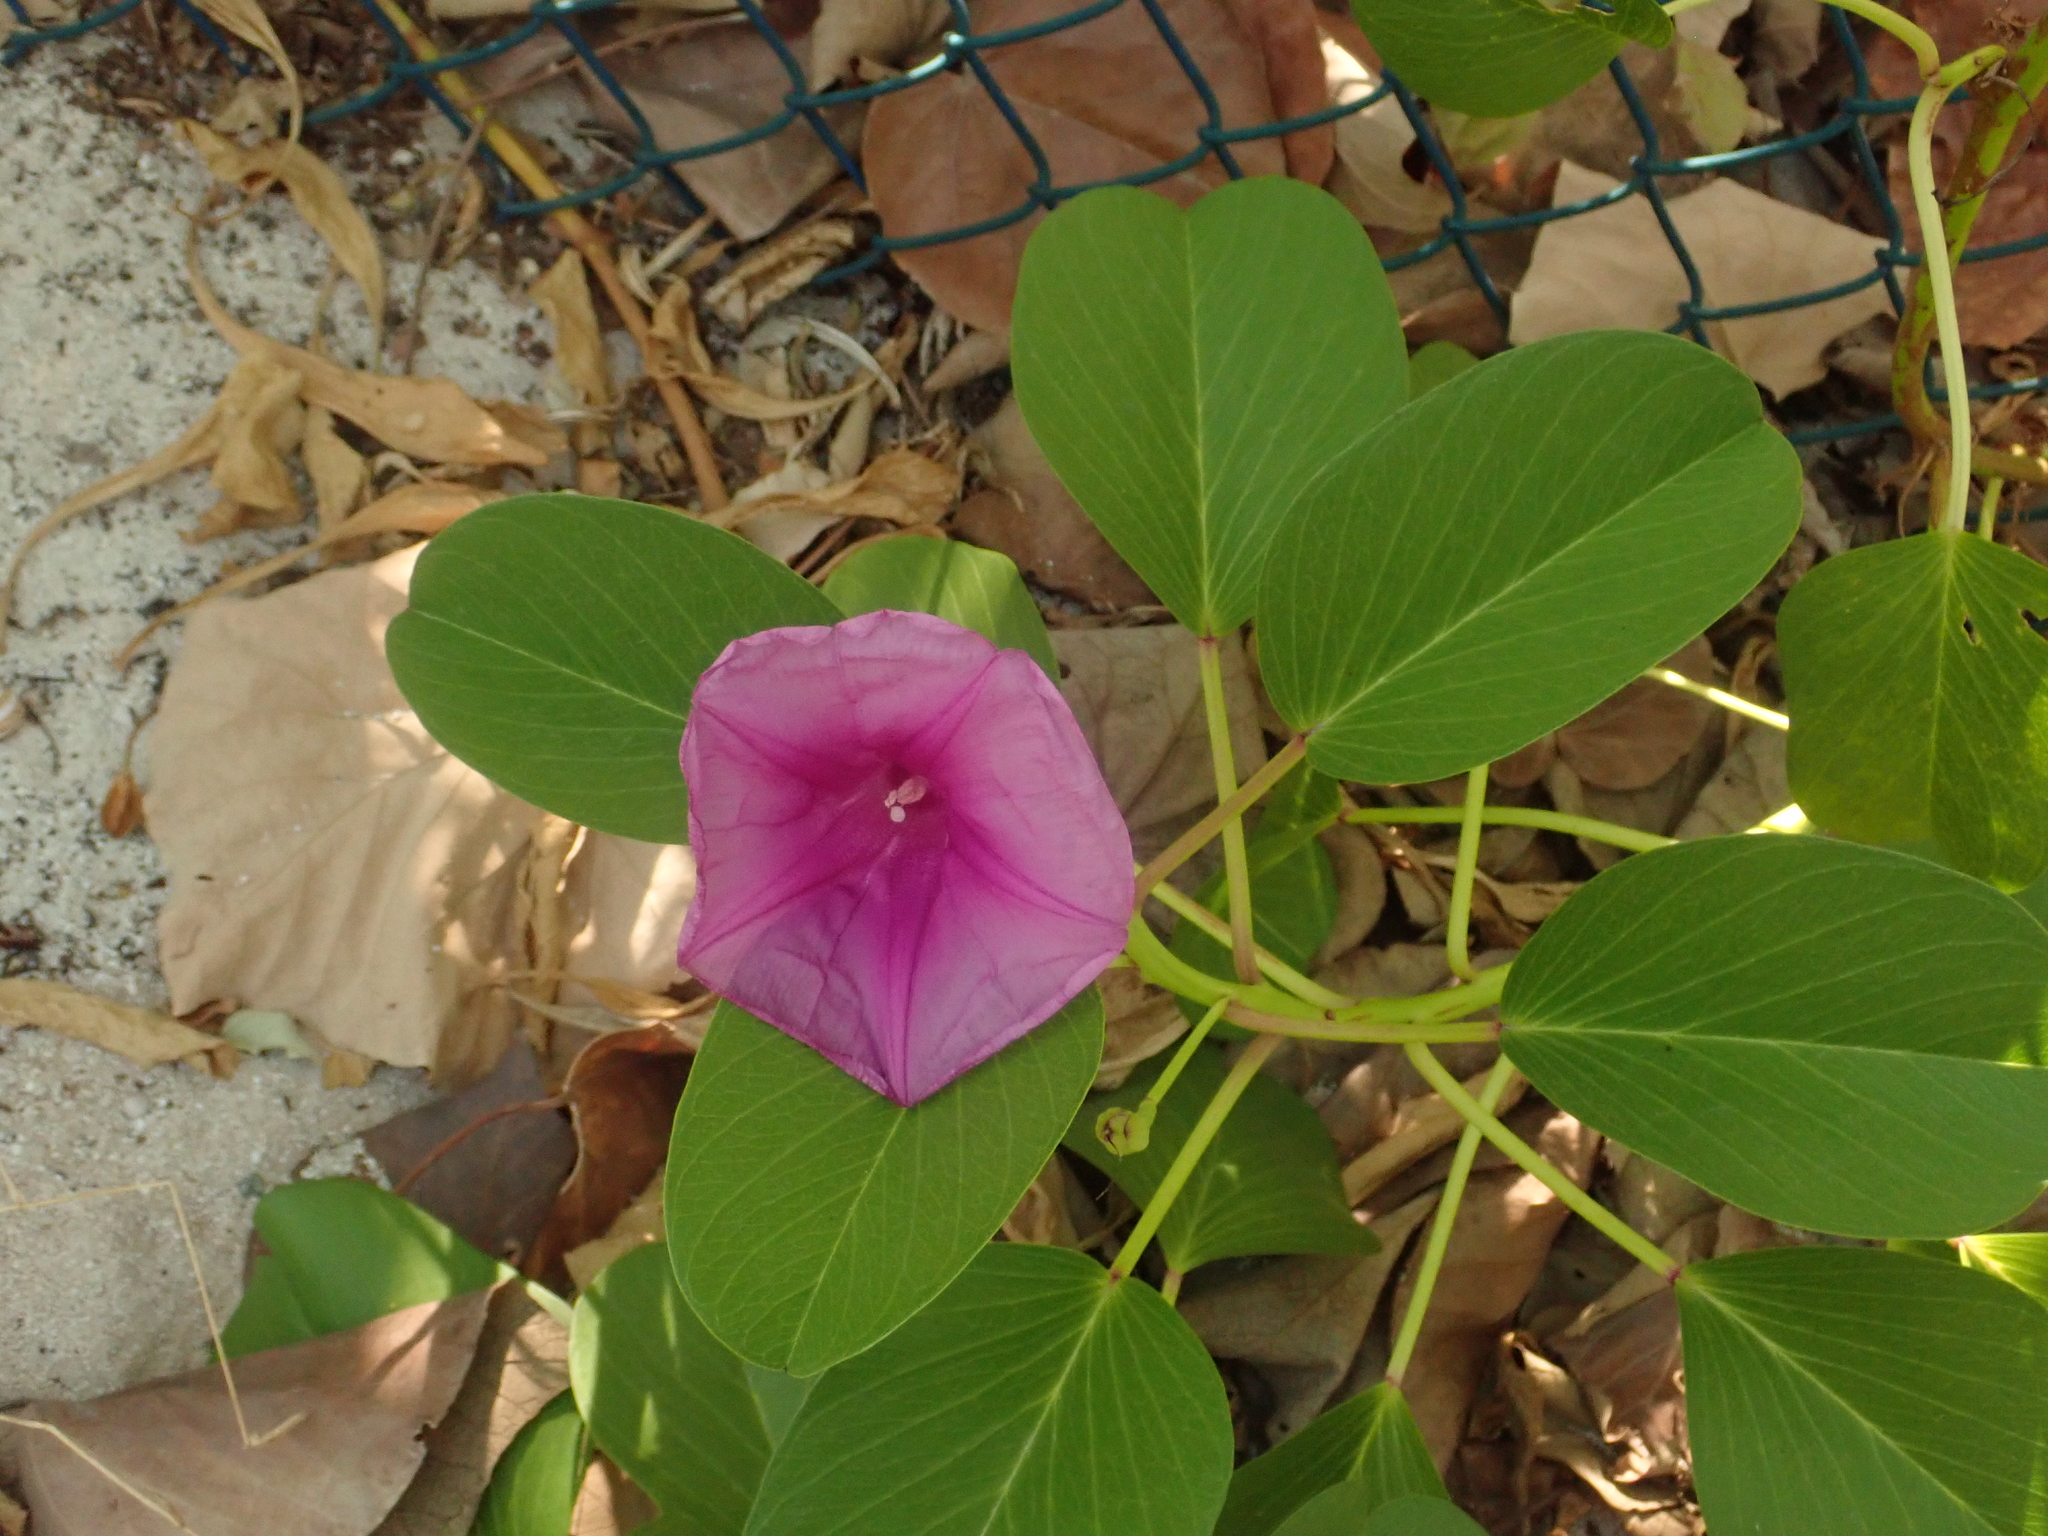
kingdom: Plantae
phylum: Tracheophyta
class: Magnoliopsida
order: Solanales
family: Convolvulaceae
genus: Ipomoea
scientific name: Ipomoea pes-caprae
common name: Beach morning glory
